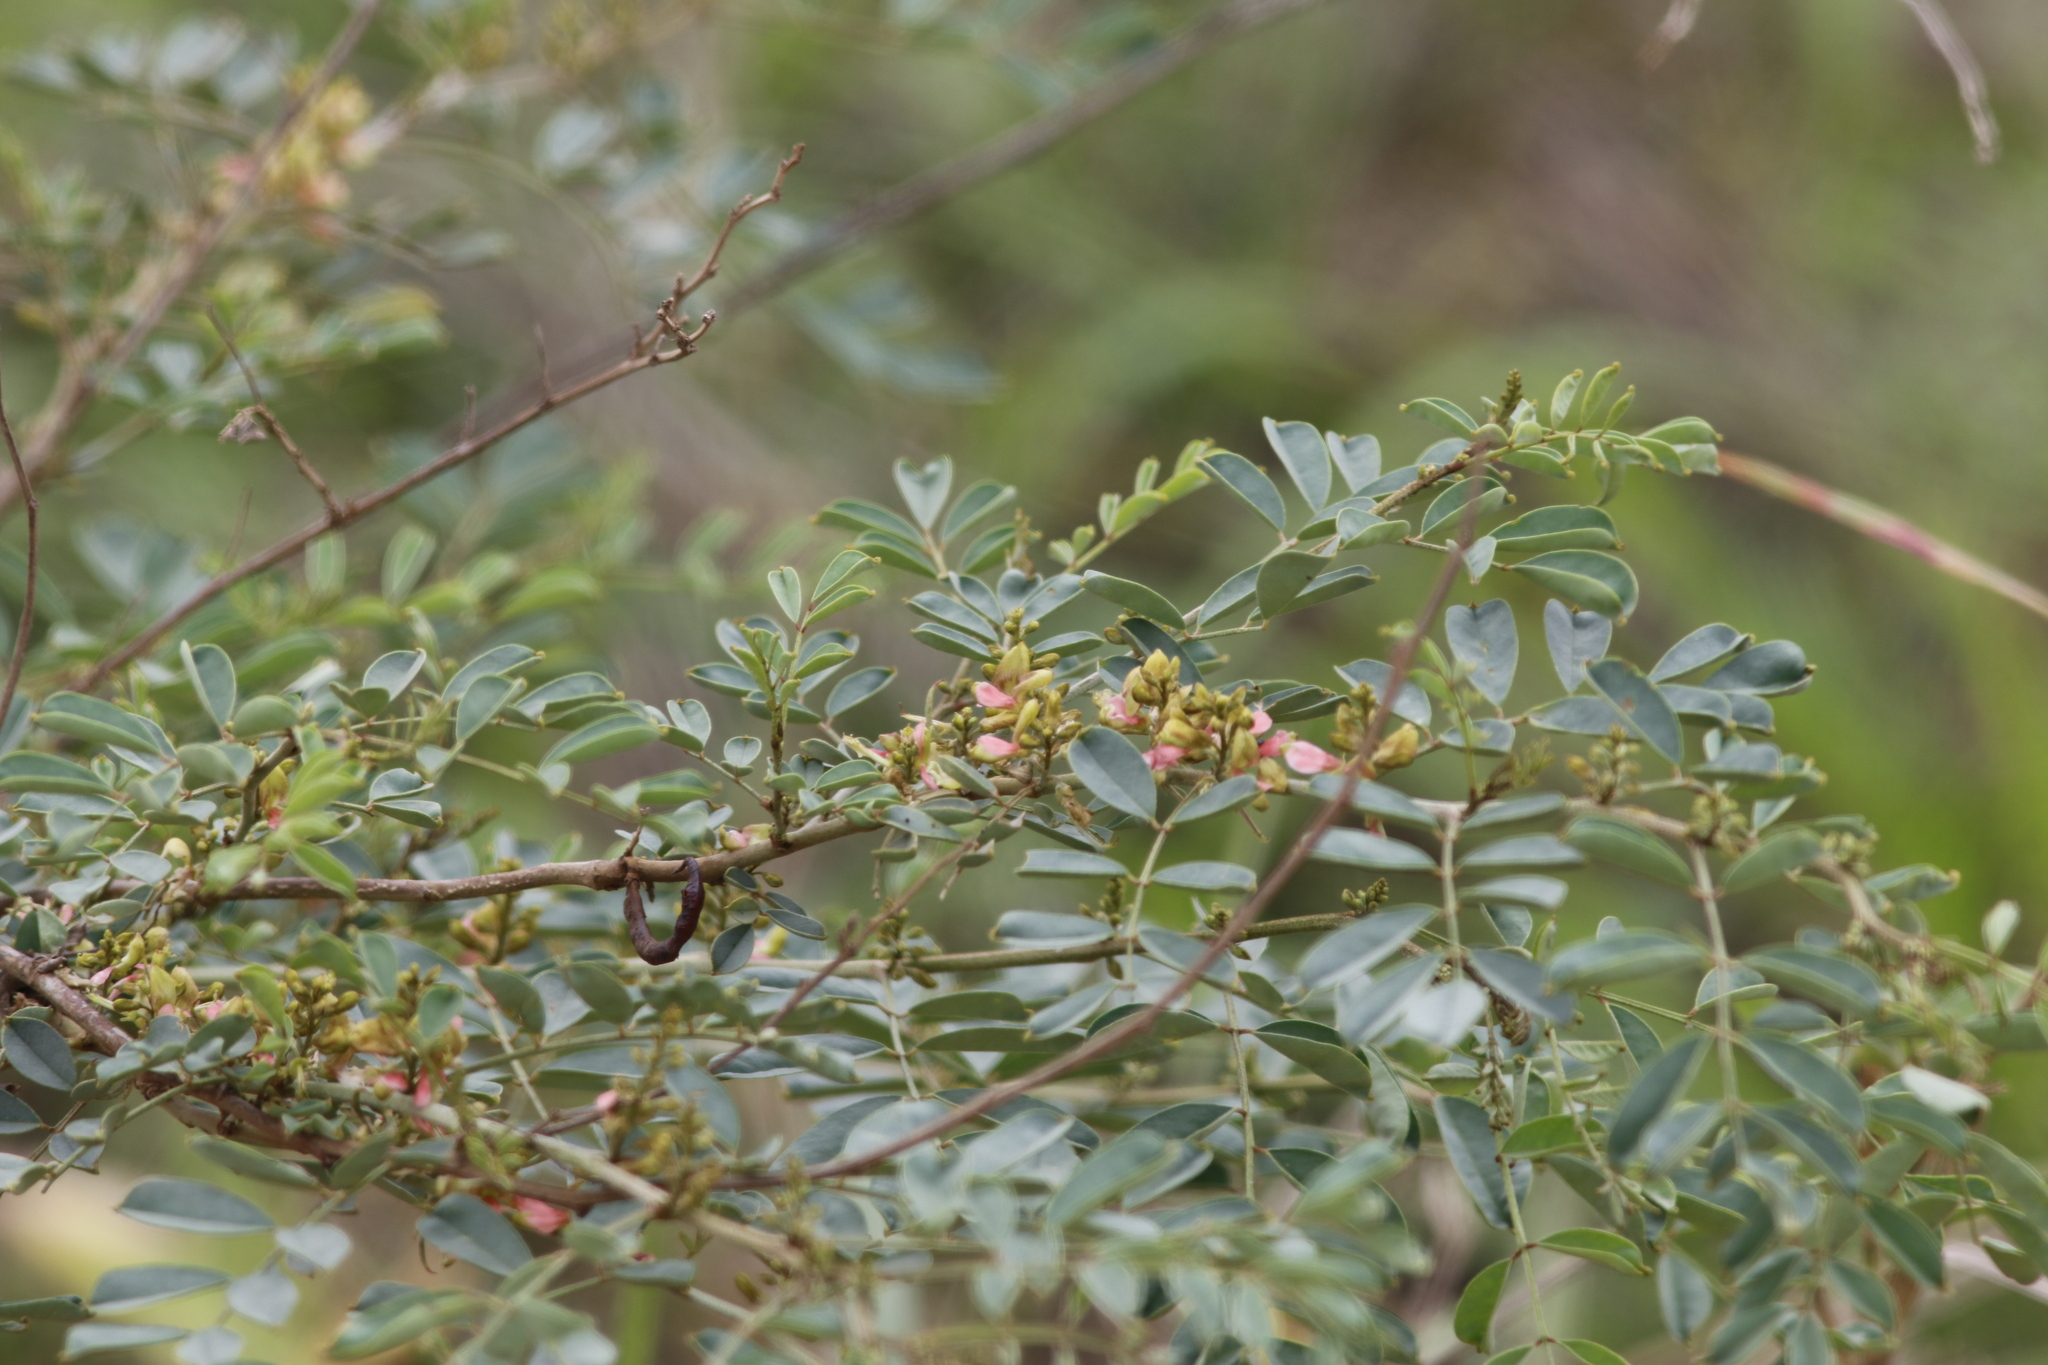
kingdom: Plantae
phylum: Tracheophyta
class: Magnoliopsida
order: Fabales
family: Fabaceae
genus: Indigofera
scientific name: Indigofera tinctoria
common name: True indigo
